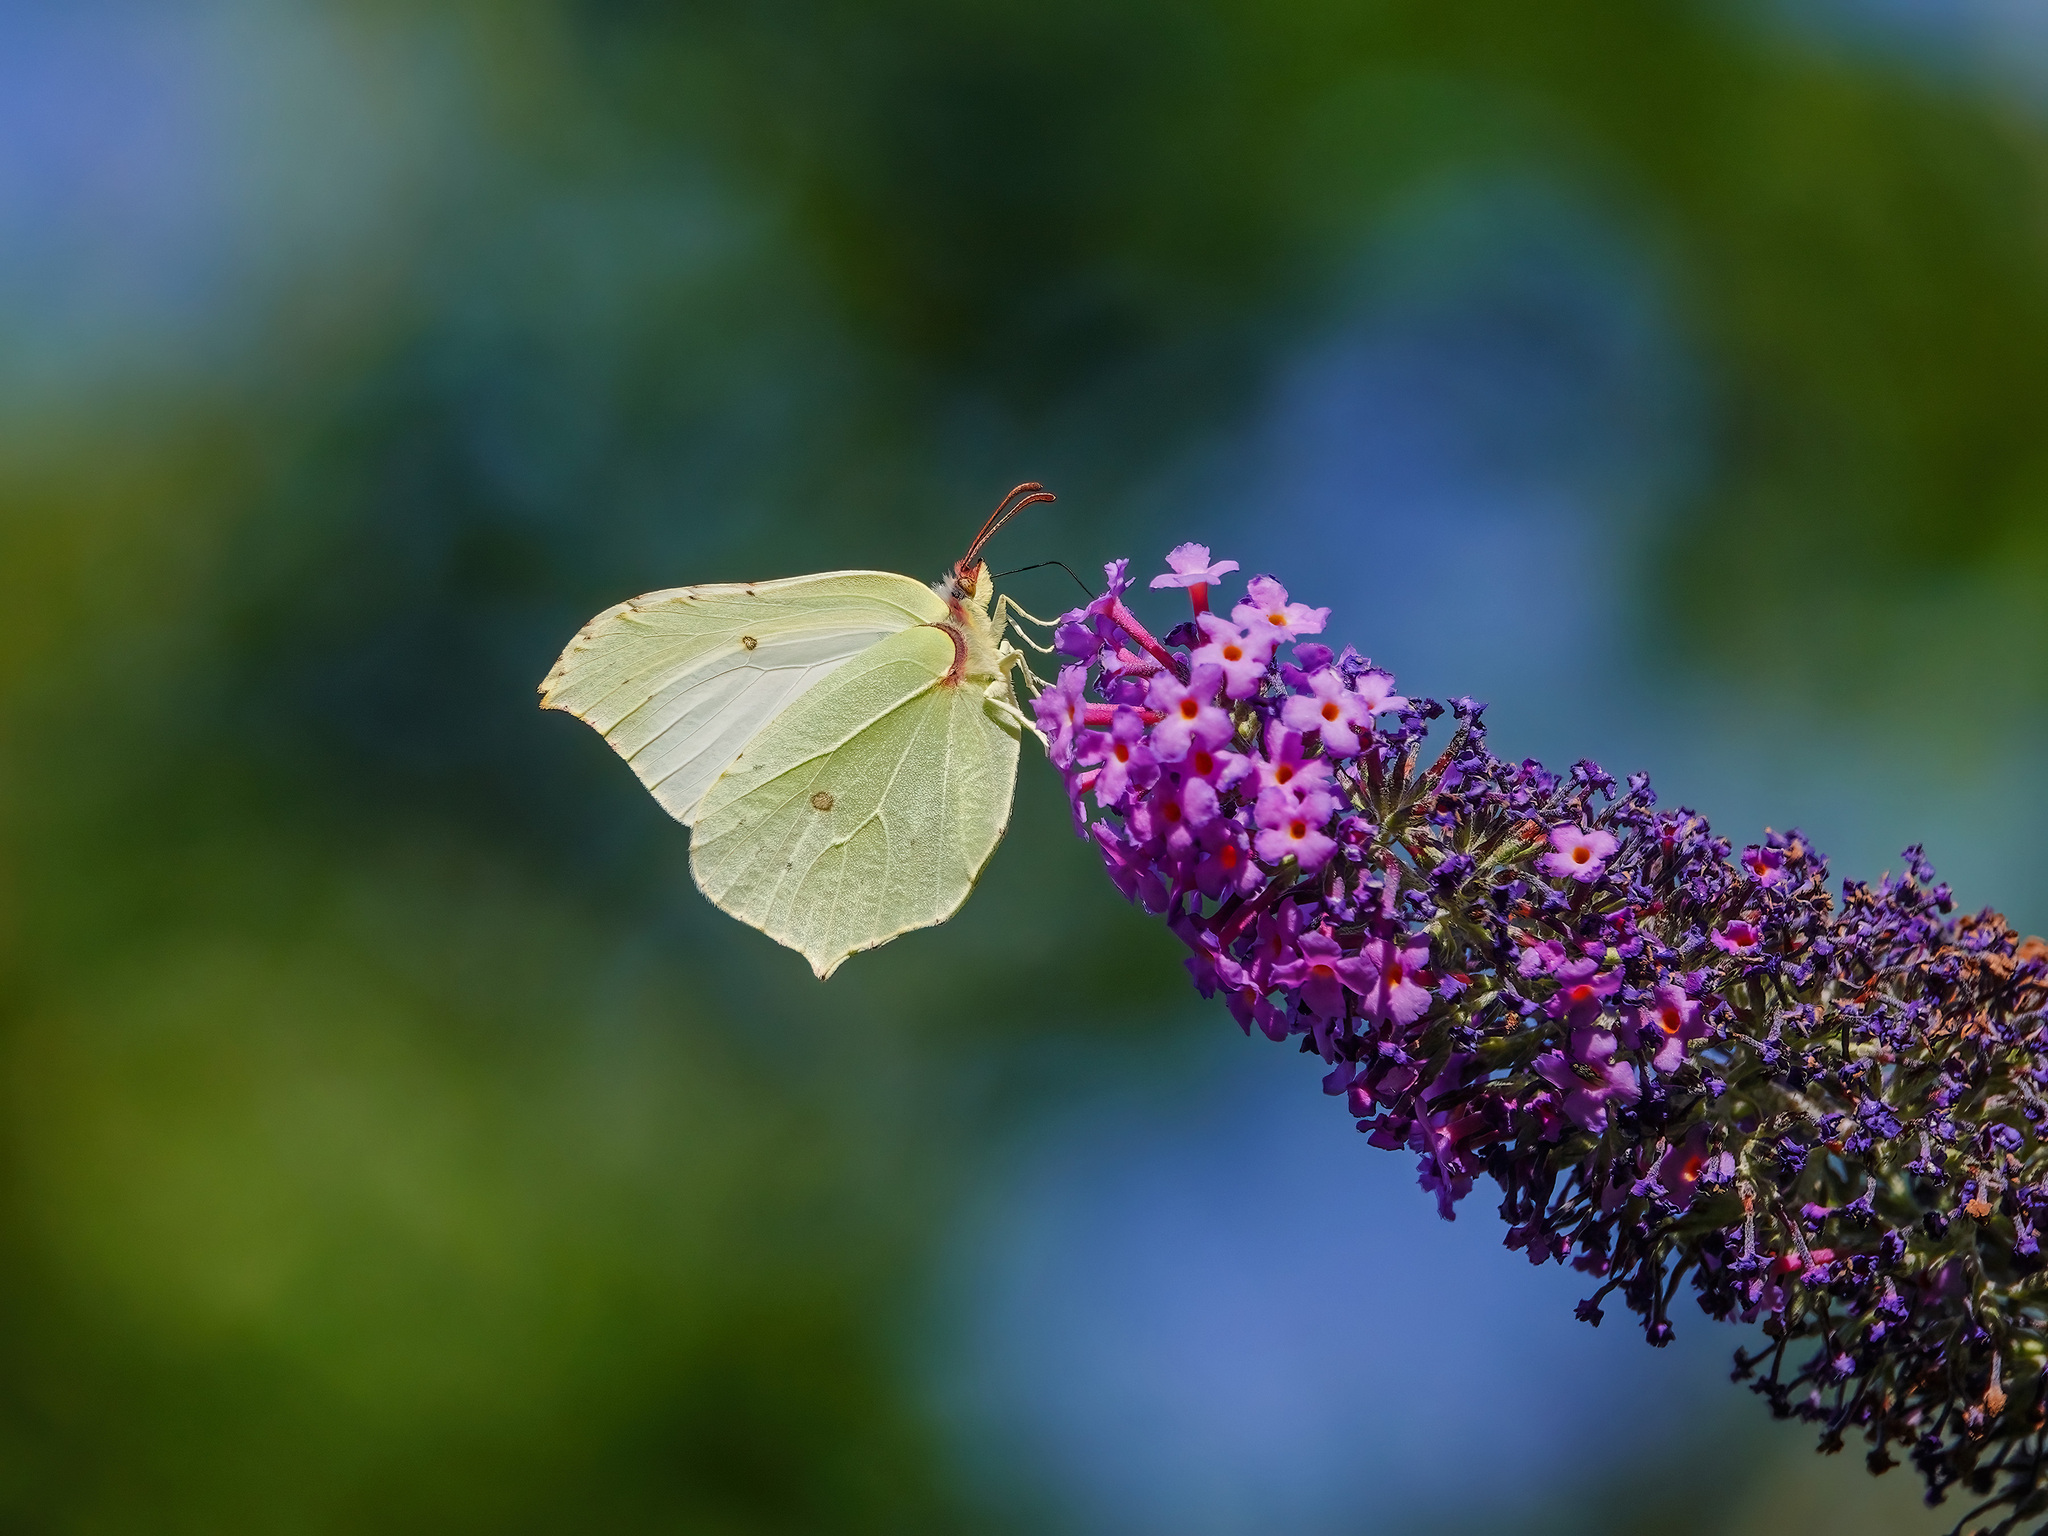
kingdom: Animalia
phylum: Arthropoda
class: Insecta
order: Lepidoptera
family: Pieridae
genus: Gonepteryx
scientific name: Gonepteryx rhamni
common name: Brimstone
